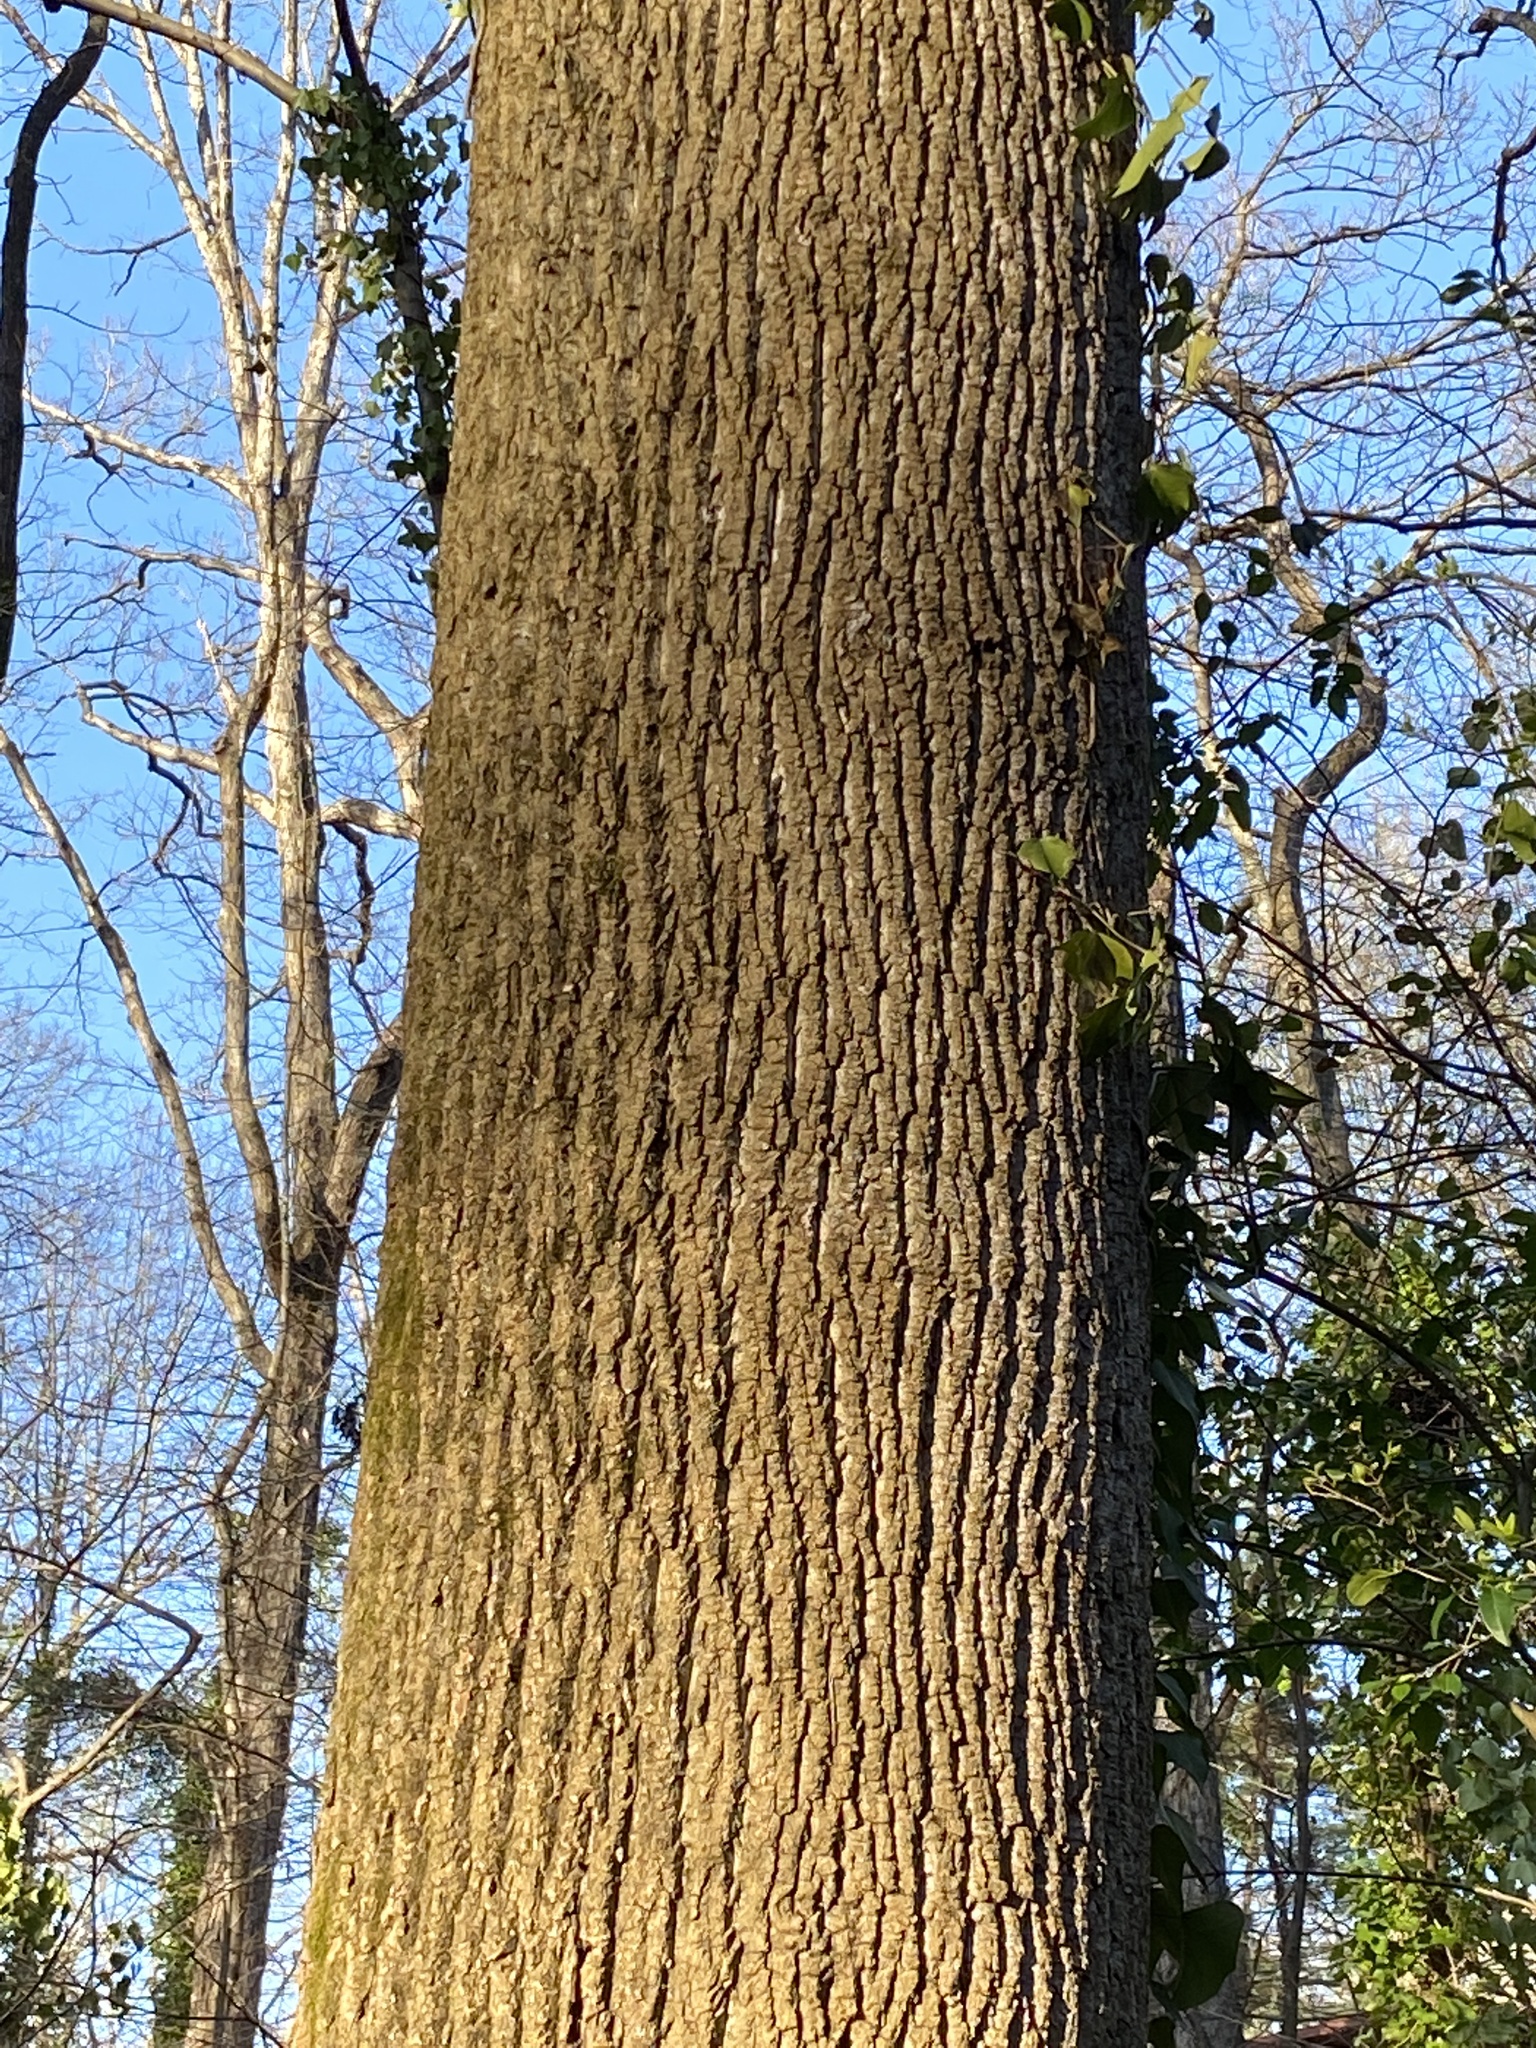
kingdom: Plantae
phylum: Tracheophyta
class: Magnoliopsida
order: Magnoliales
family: Magnoliaceae
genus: Liriodendron
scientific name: Liriodendron tulipifera
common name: Tulip tree
